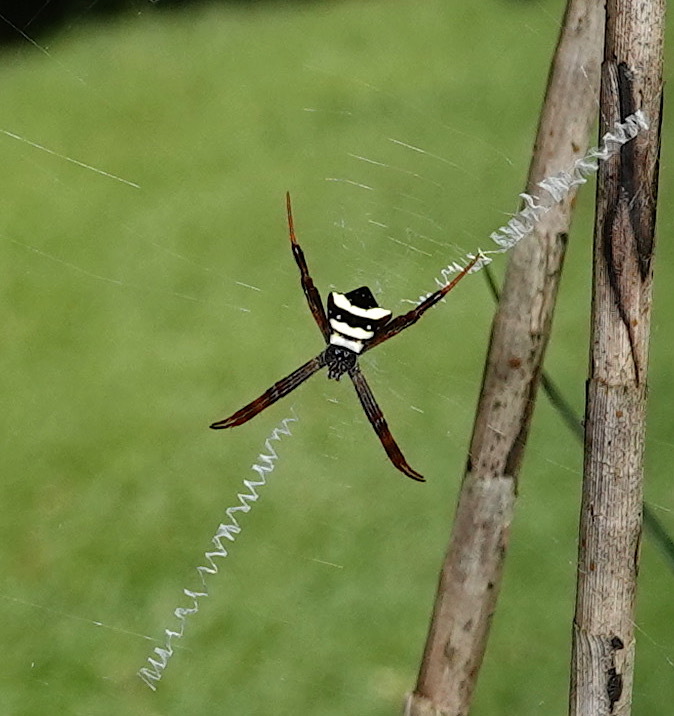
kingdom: Animalia
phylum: Arthropoda
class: Arachnida
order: Araneae
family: Araneidae
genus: Argiope
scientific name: Argiope reinwardti
